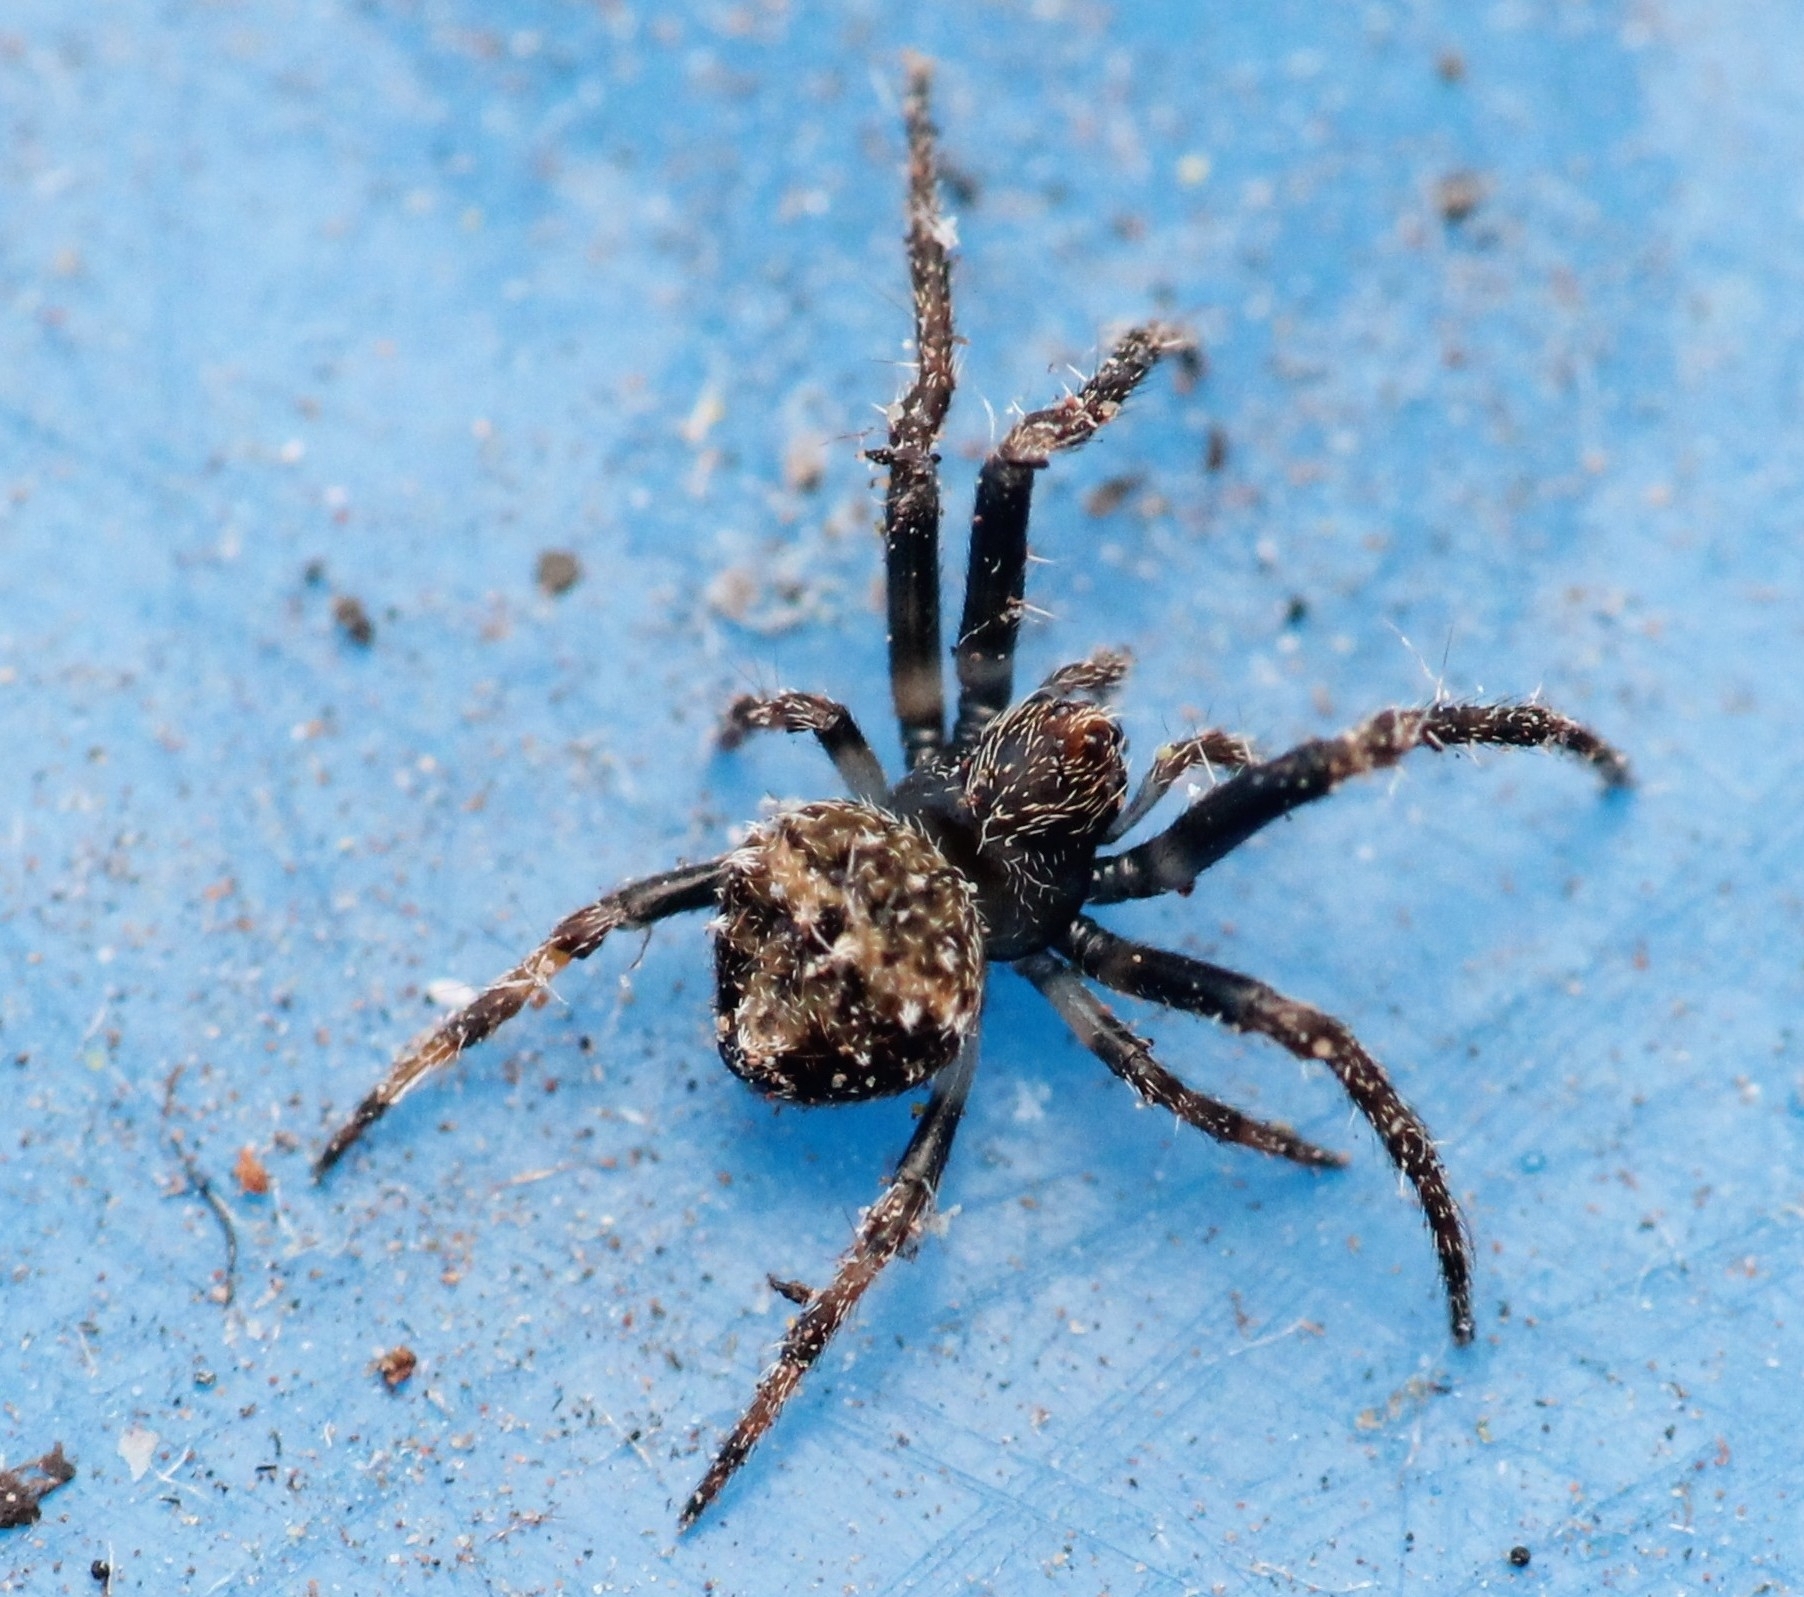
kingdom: Animalia
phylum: Arthropoda
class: Arachnida
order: Araneae
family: Araneidae
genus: Eriovixia
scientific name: Eriovixia excelsa
